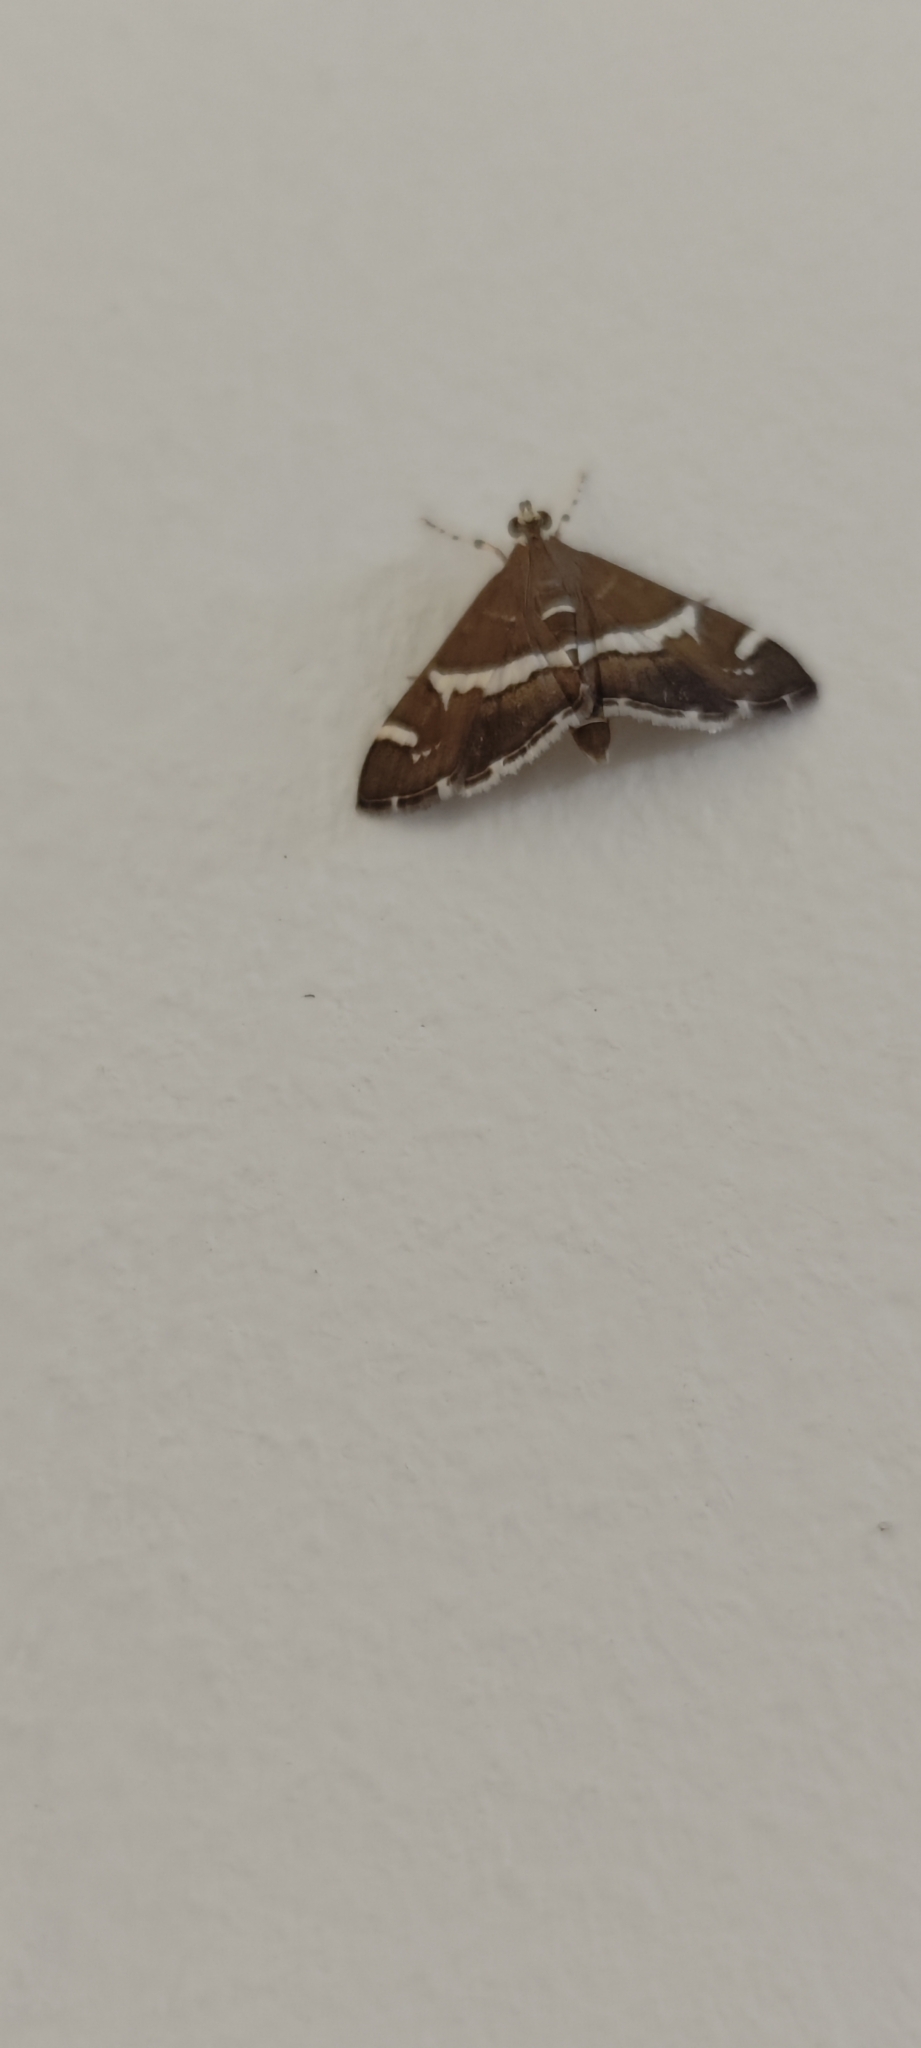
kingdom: Animalia
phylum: Arthropoda
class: Insecta
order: Lepidoptera
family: Crambidae
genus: Spoladea
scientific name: Spoladea recurvalis
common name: Beet webworm moth
